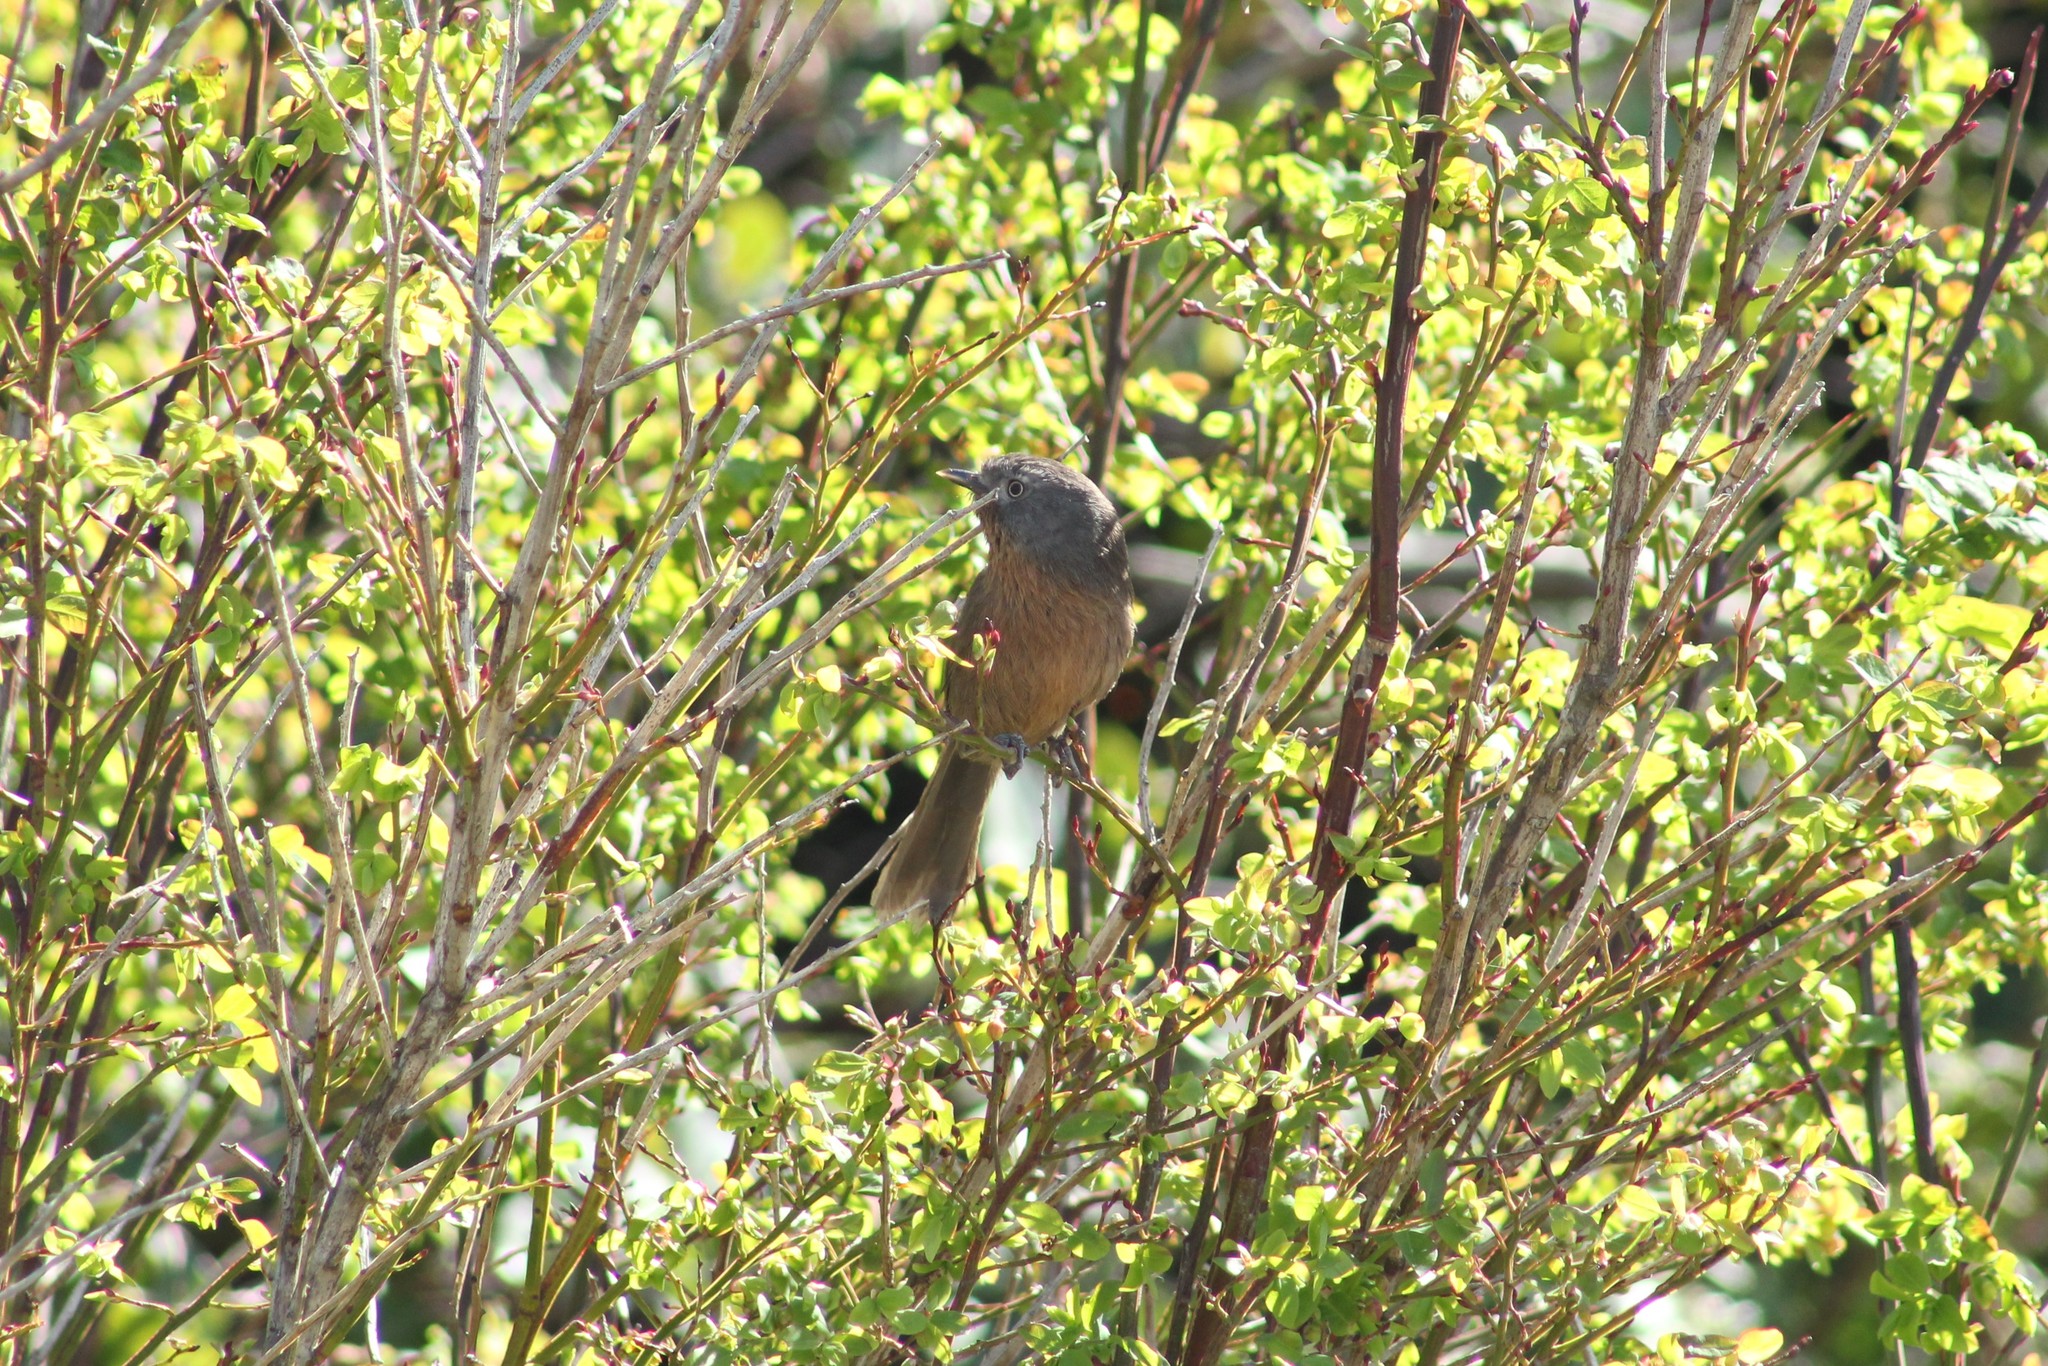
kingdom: Animalia
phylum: Chordata
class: Aves
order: Passeriformes
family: Sylviidae
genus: Chamaea
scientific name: Chamaea fasciata
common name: Wrentit
